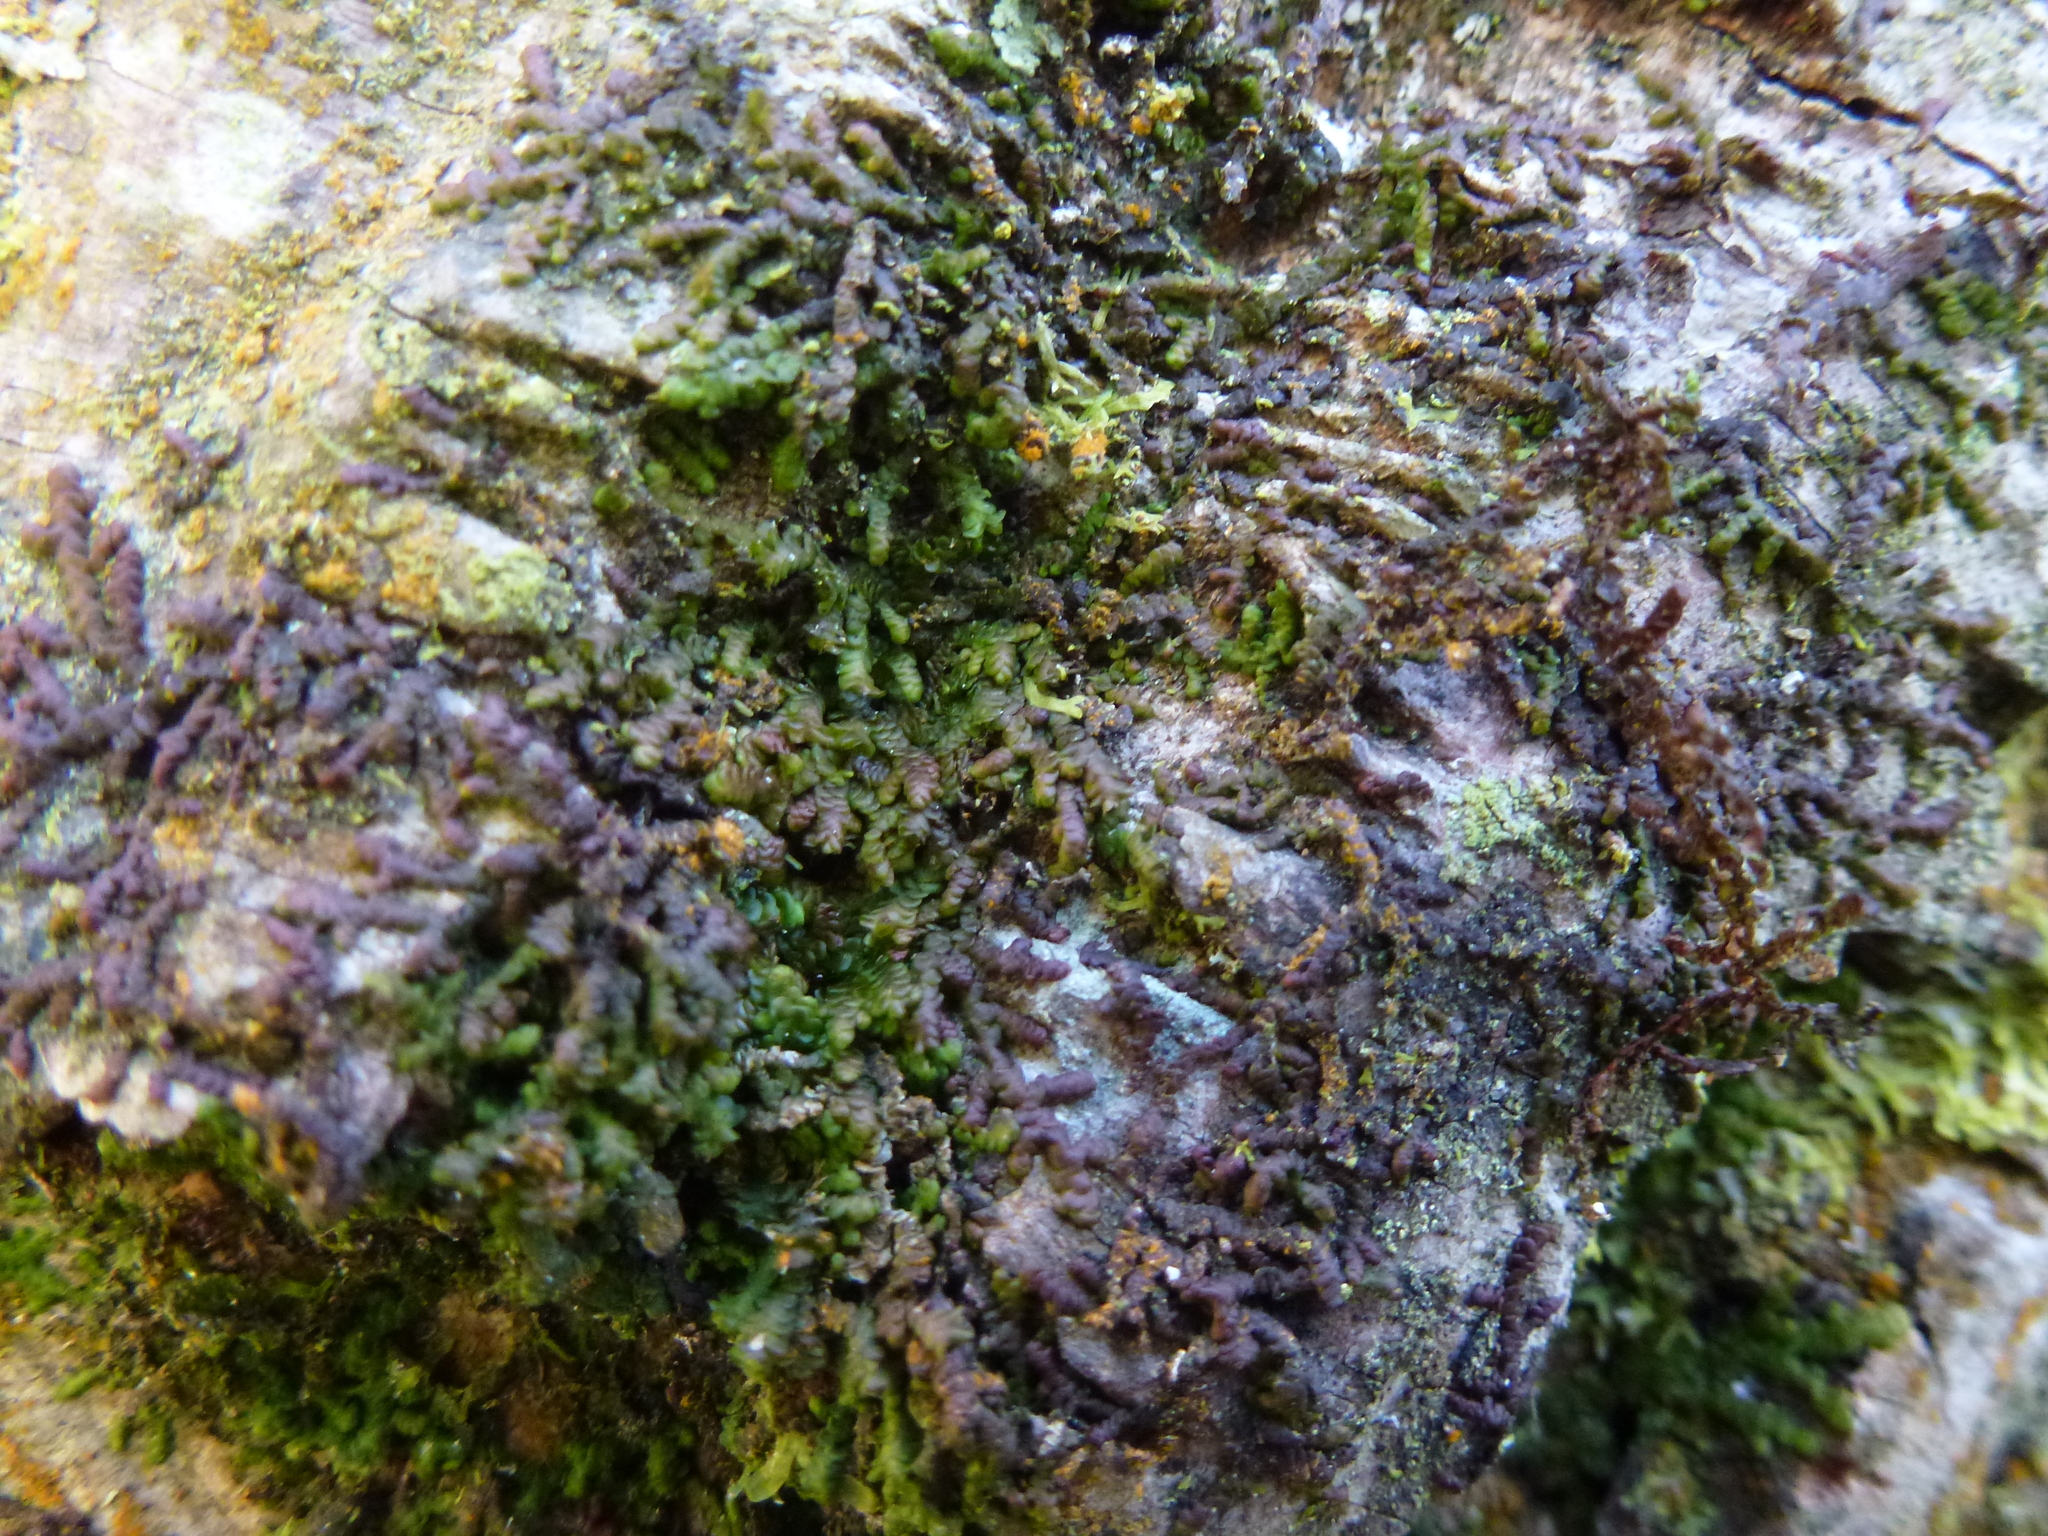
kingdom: Plantae
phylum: Marchantiophyta
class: Jungermanniopsida
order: Porellales
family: Frullaniaceae
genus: Frullania
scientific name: Frullania dilatata
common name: Dilated scalewort
